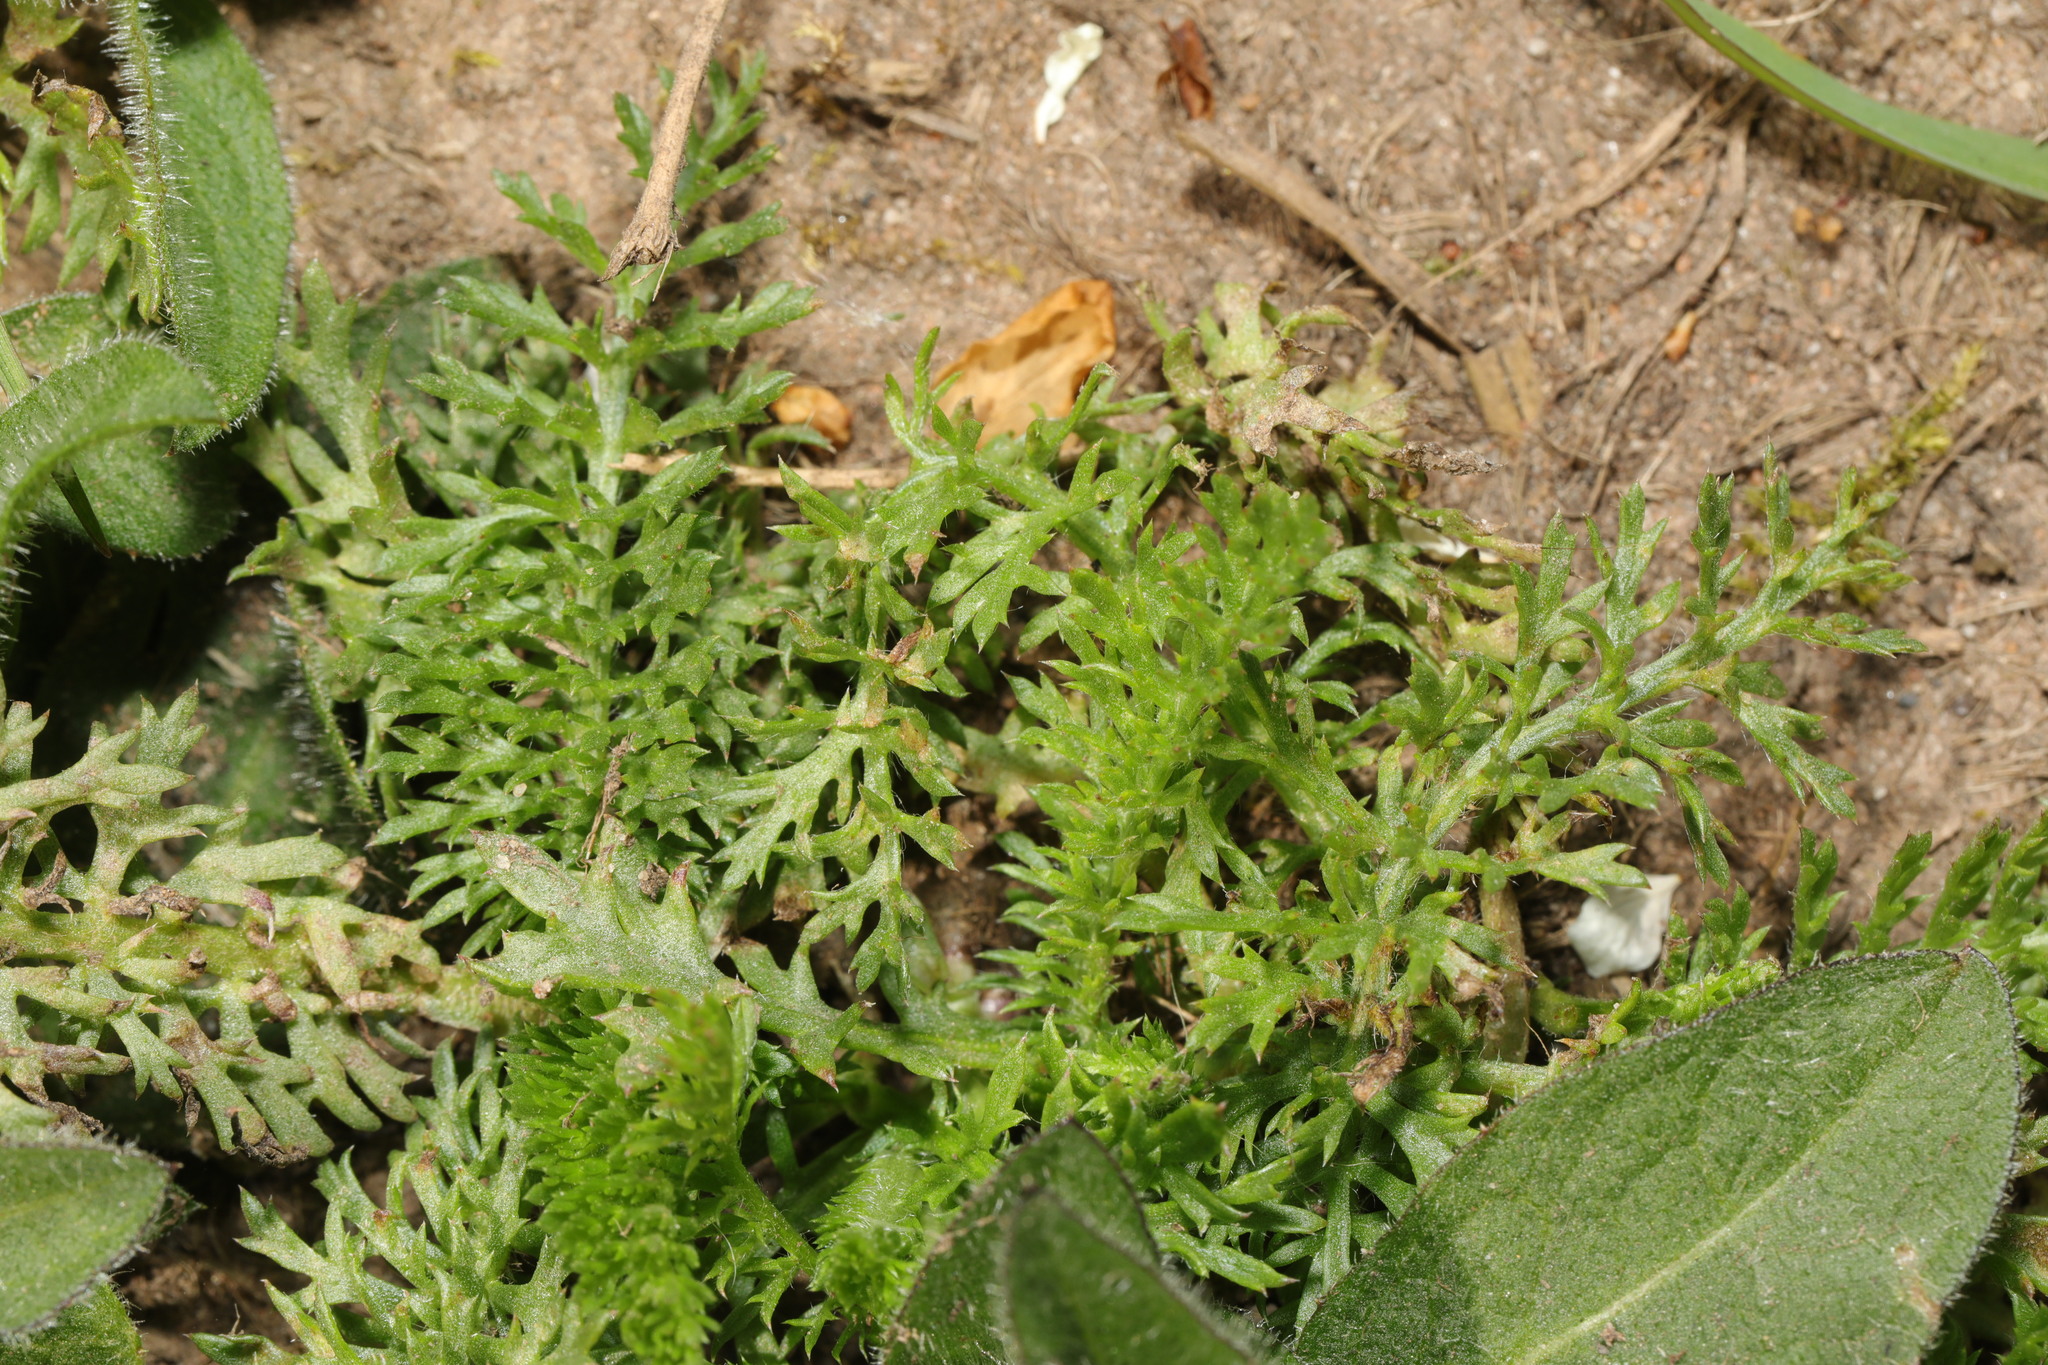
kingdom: Plantae
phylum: Tracheophyta
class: Magnoliopsida
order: Asterales
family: Asteraceae
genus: Achillea
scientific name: Achillea millefolium
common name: Yarrow
